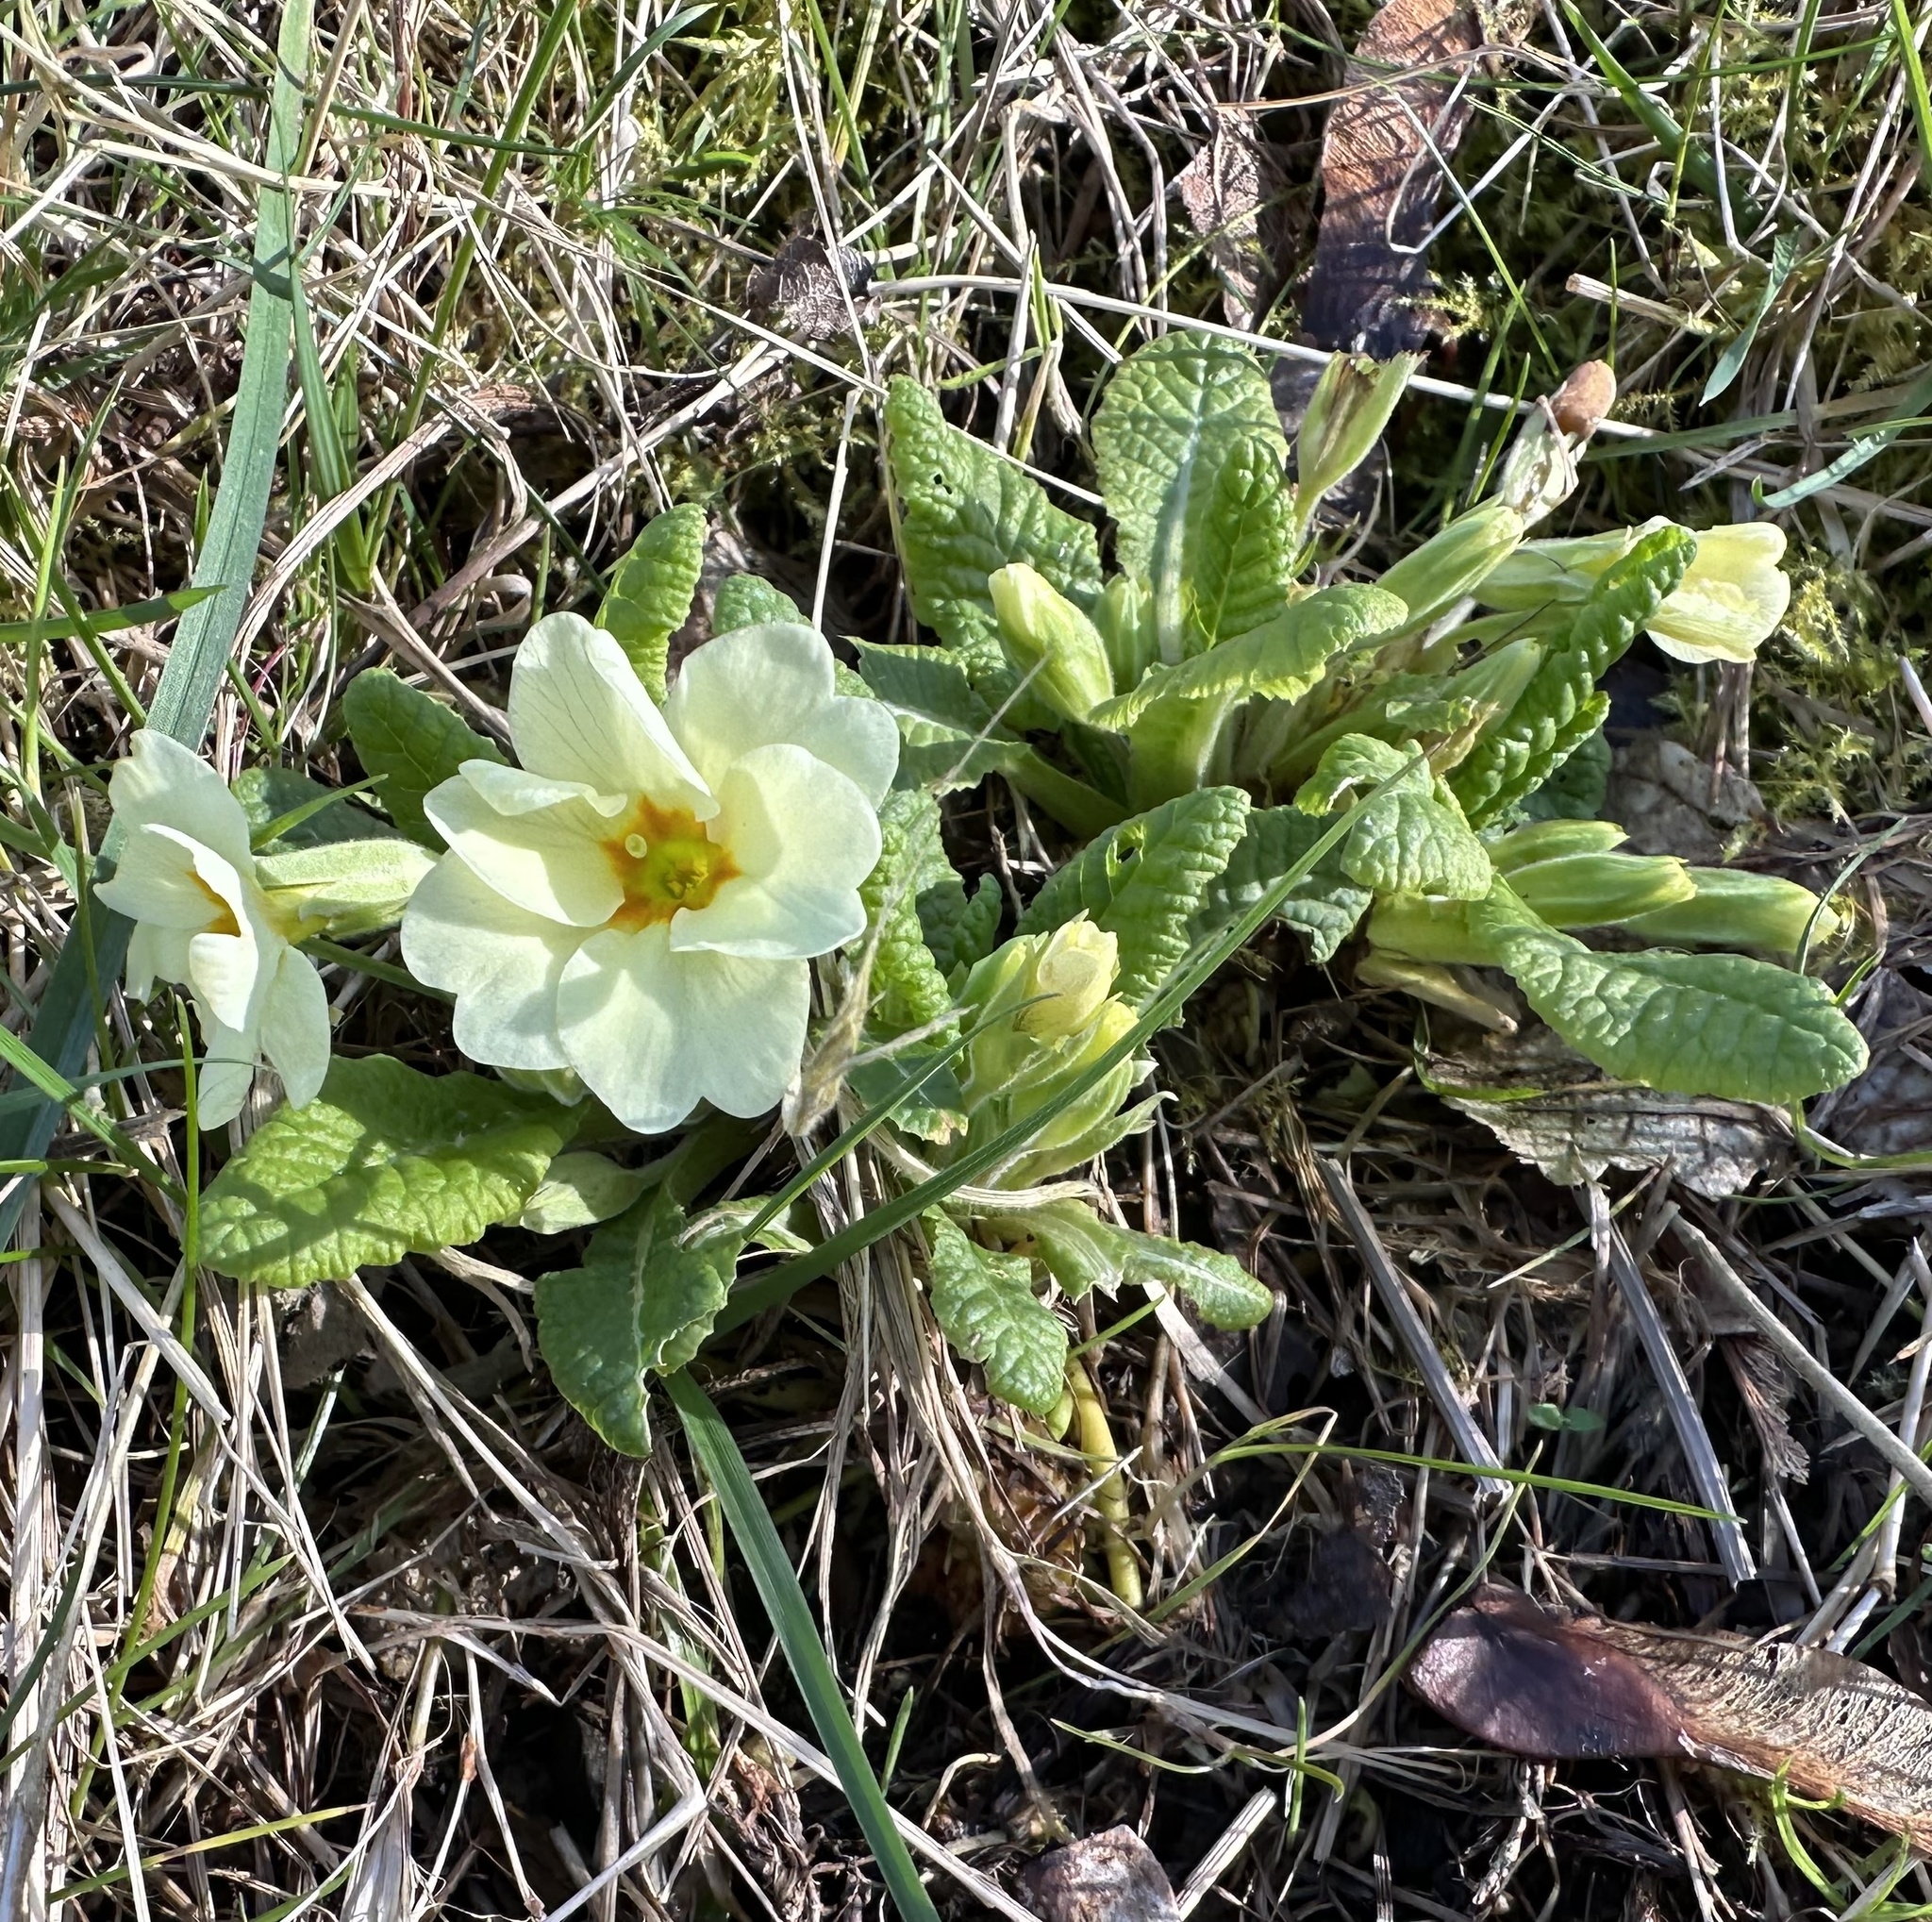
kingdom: Plantae
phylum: Tracheophyta
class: Magnoliopsida
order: Ericales
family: Primulaceae
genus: Primula
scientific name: Primula vulgaris
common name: Primrose
